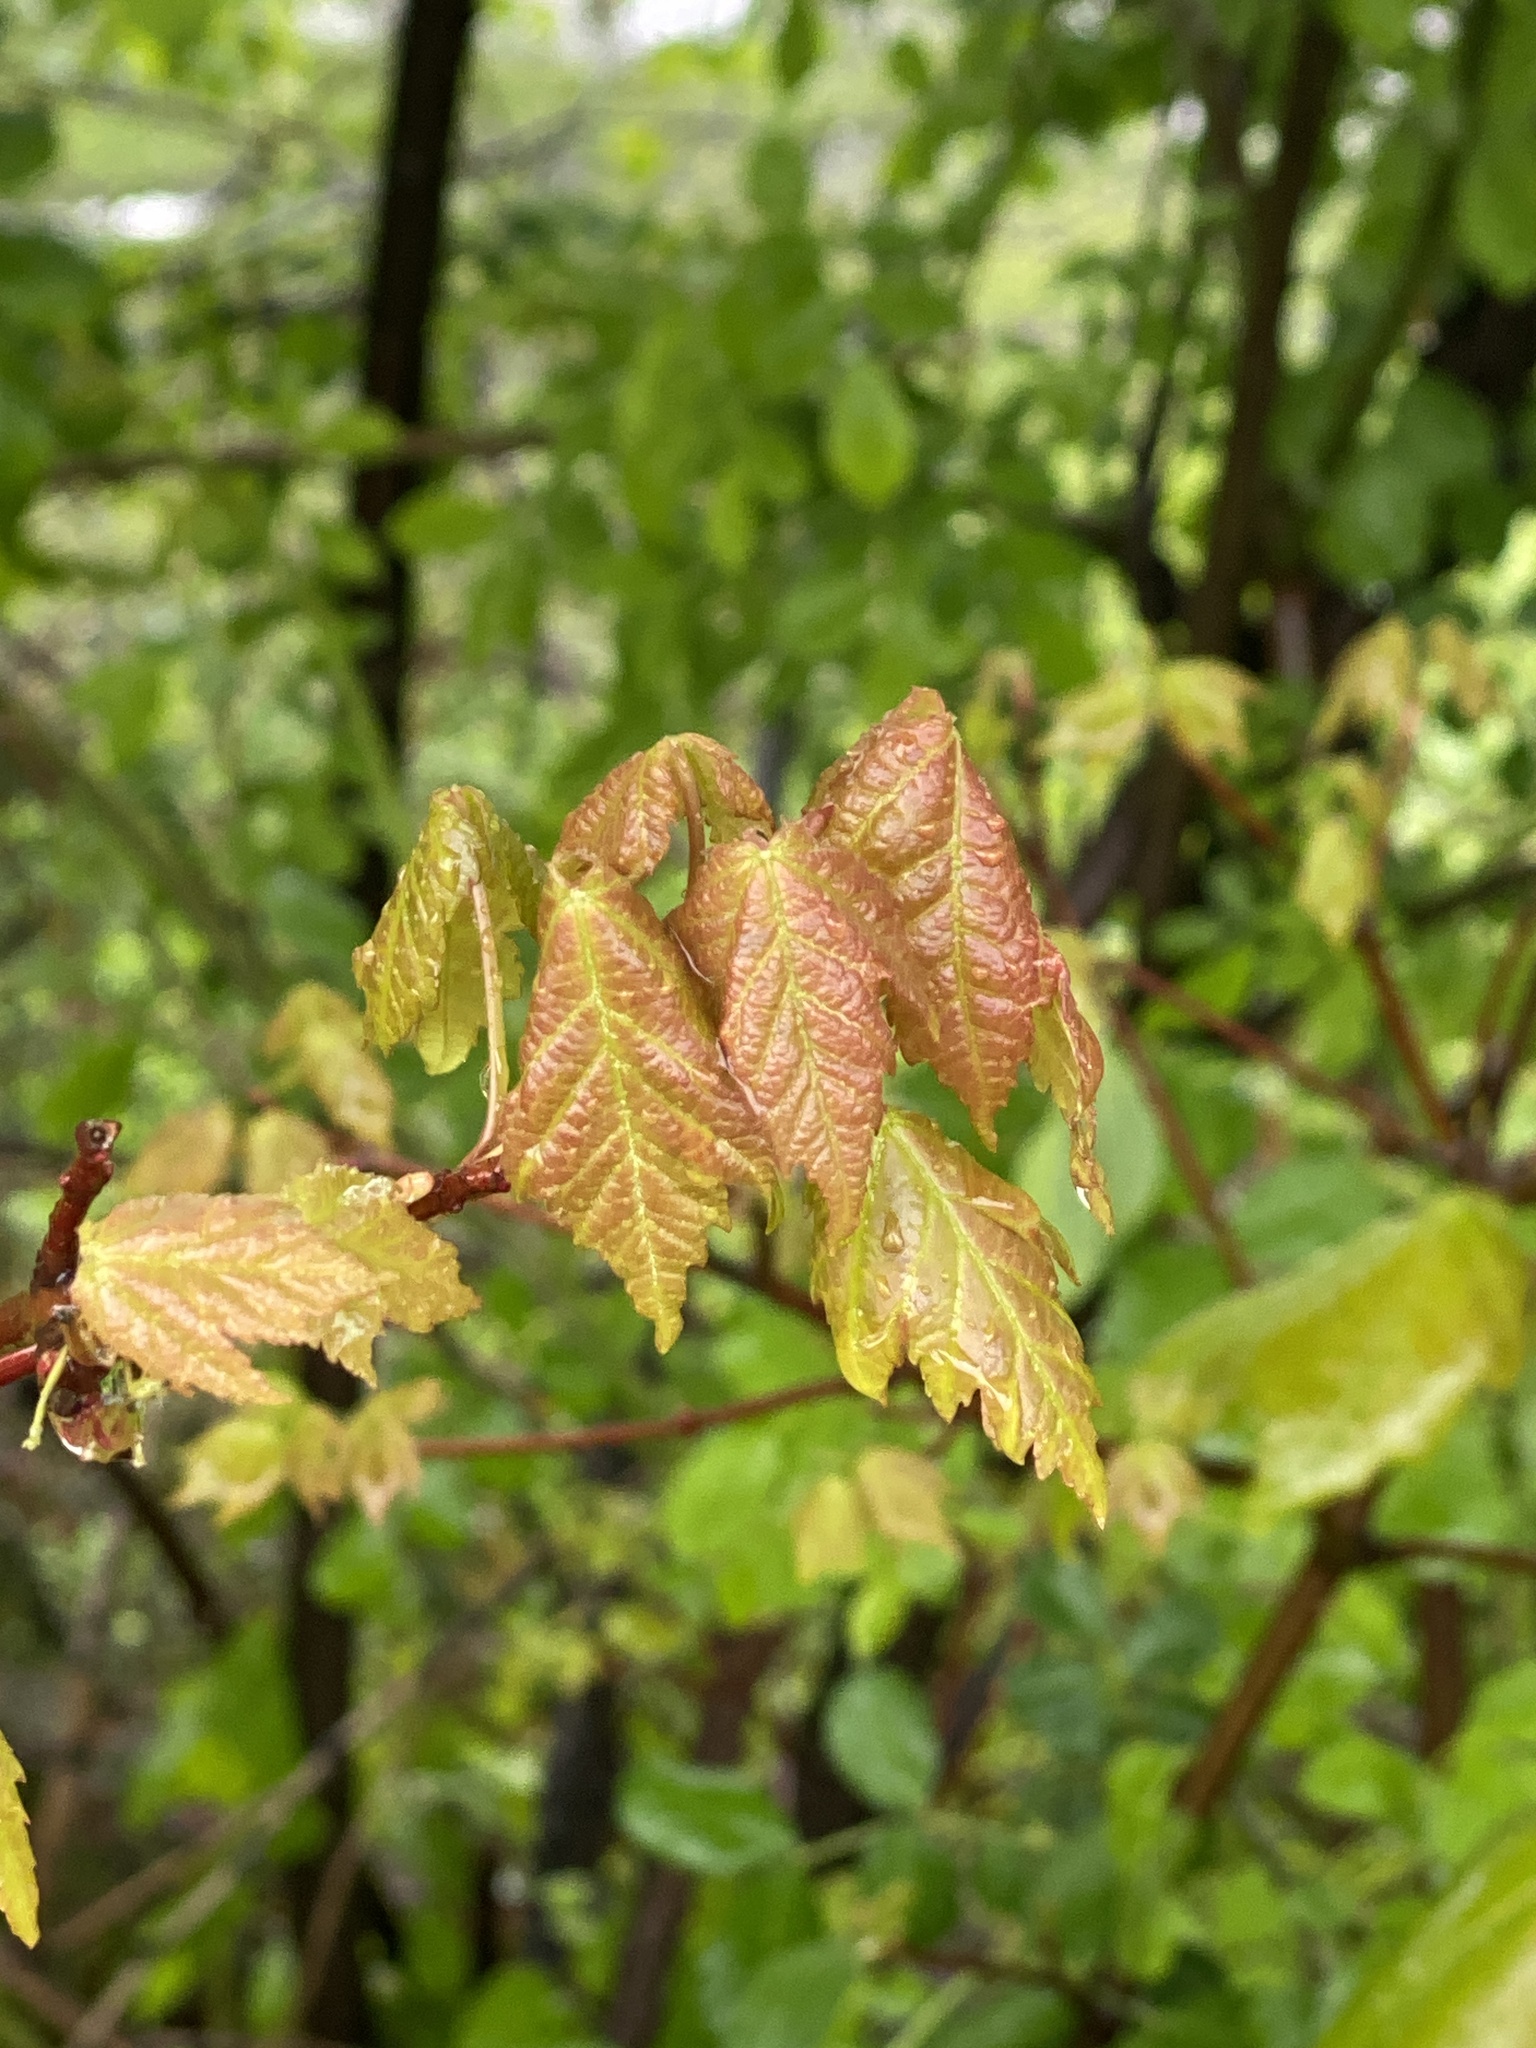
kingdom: Plantae
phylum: Tracheophyta
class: Magnoliopsida
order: Sapindales
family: Sapindaceae
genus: Acer
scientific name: Acer rubrum
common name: Red maple
